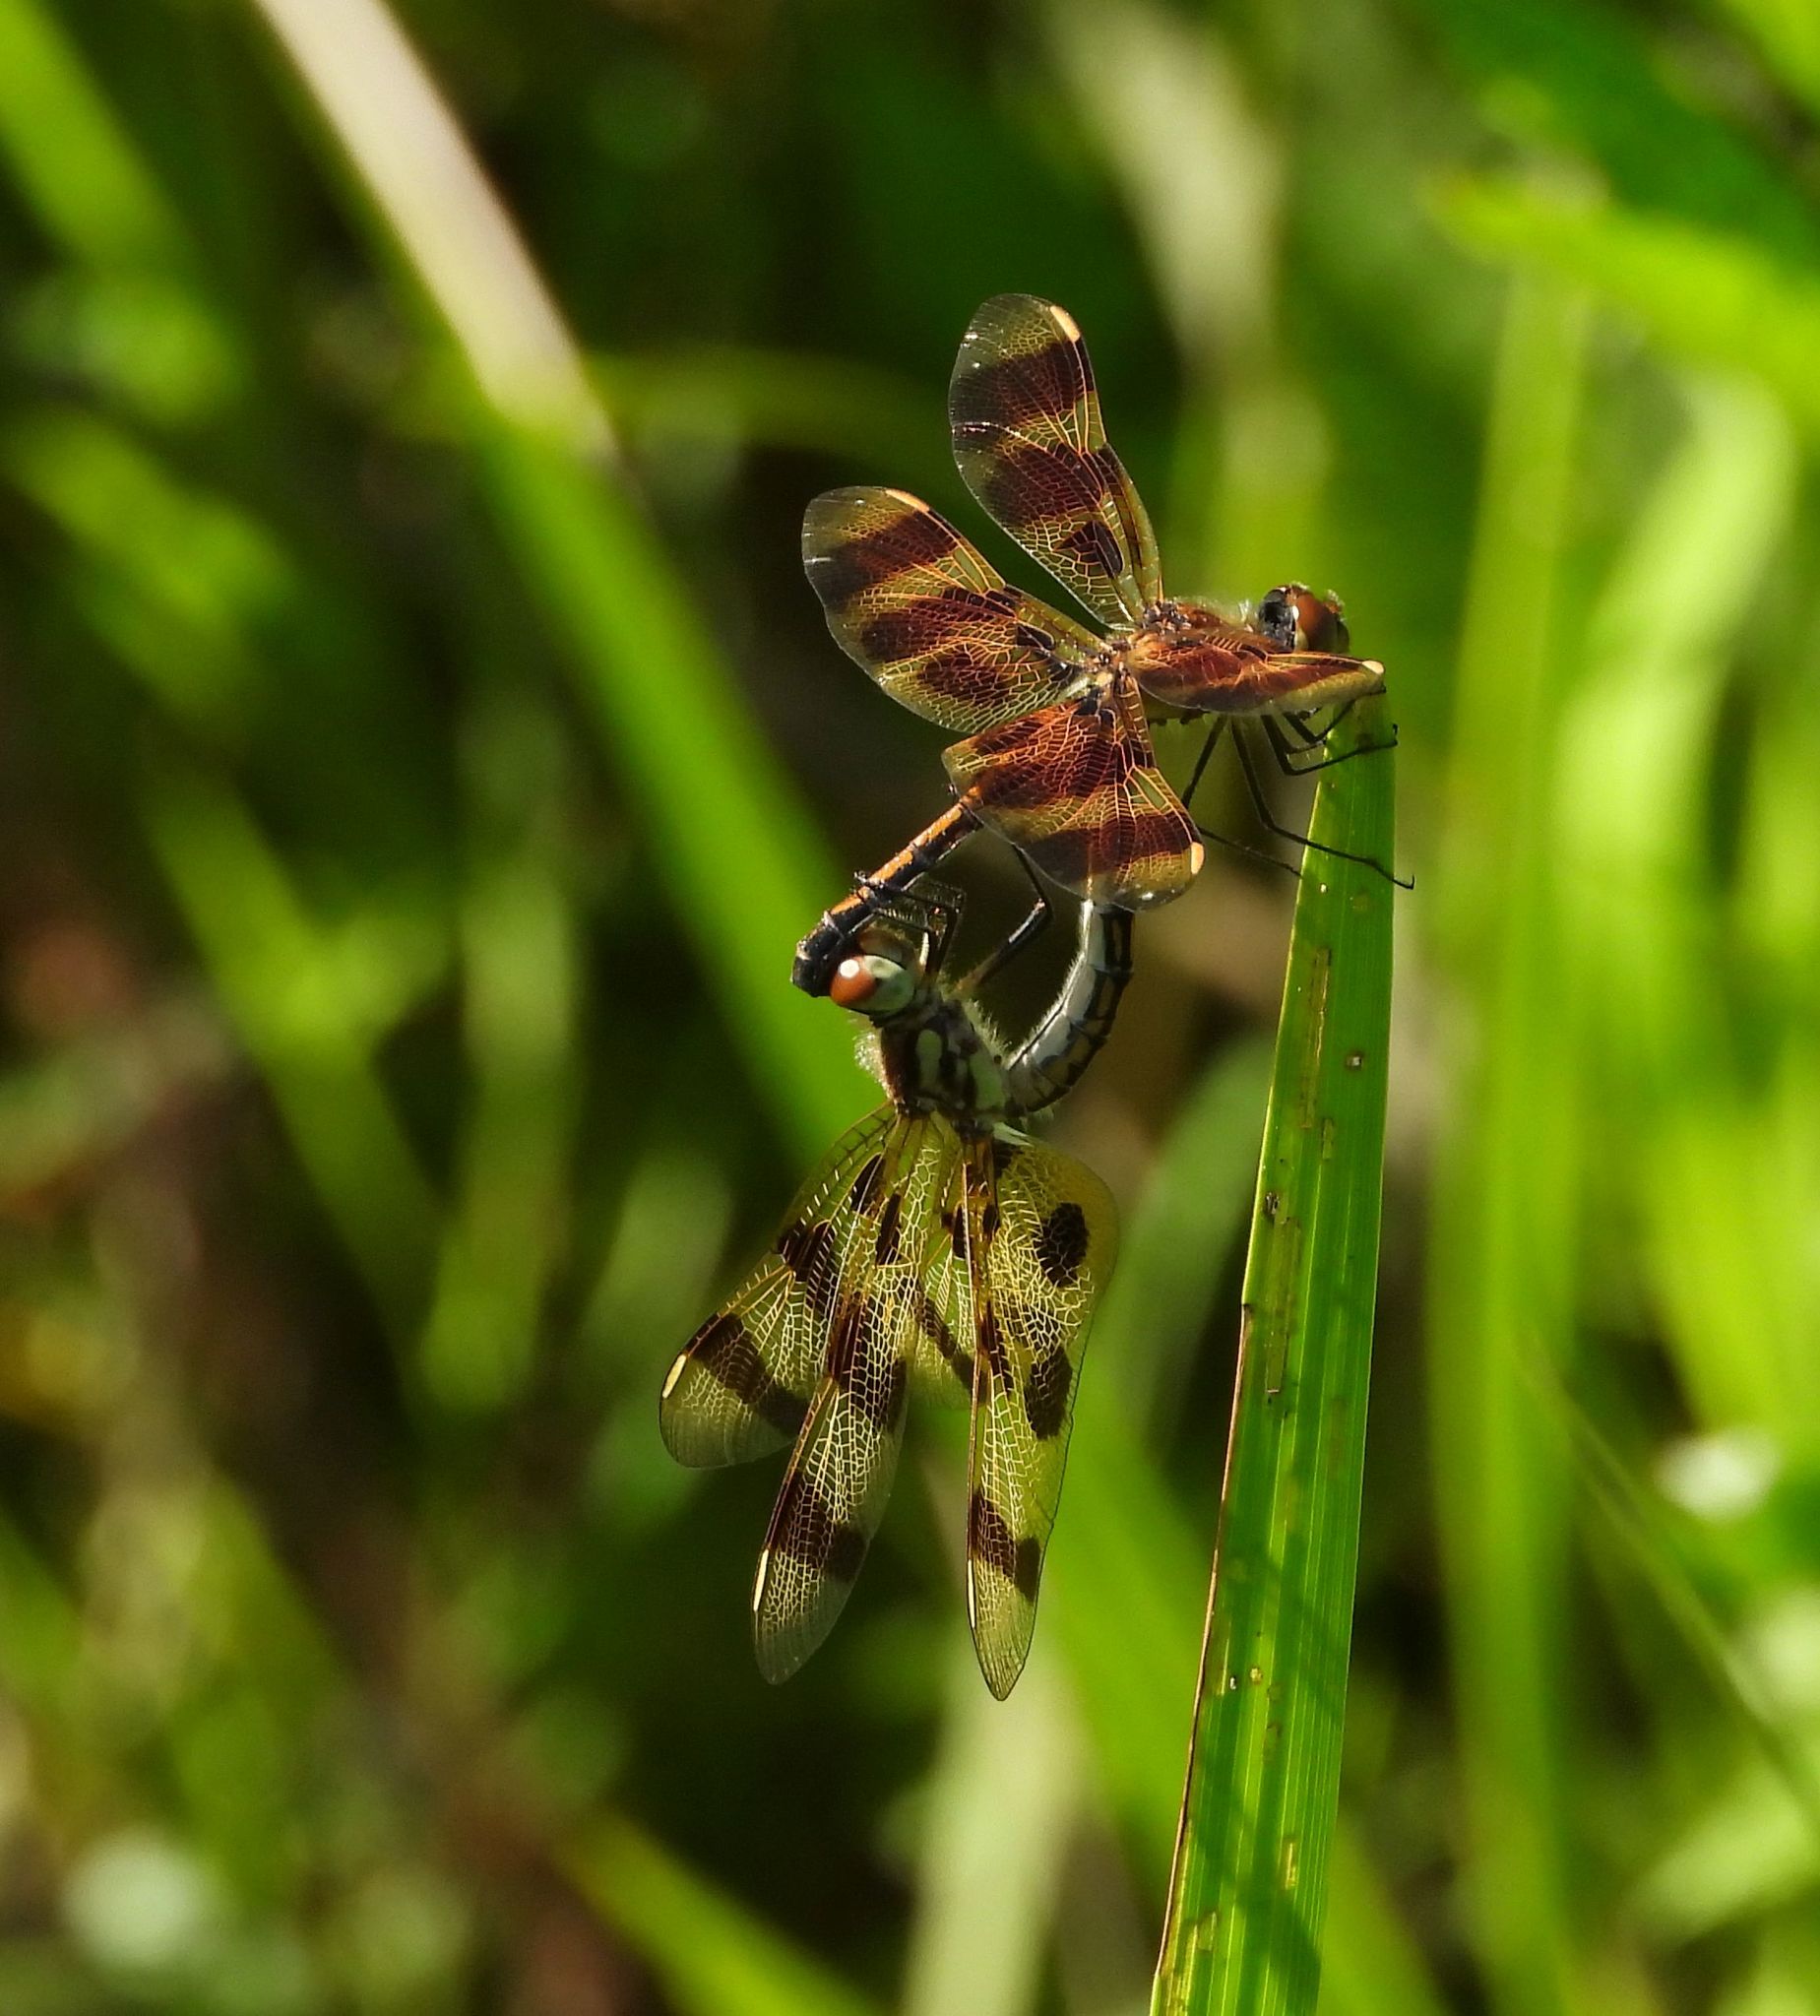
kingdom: Animalia
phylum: Arthropoda
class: Insecta
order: Odonata
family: Libellulidae
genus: Celithemis
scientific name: Celithemis eponina
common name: Halloween pennant
